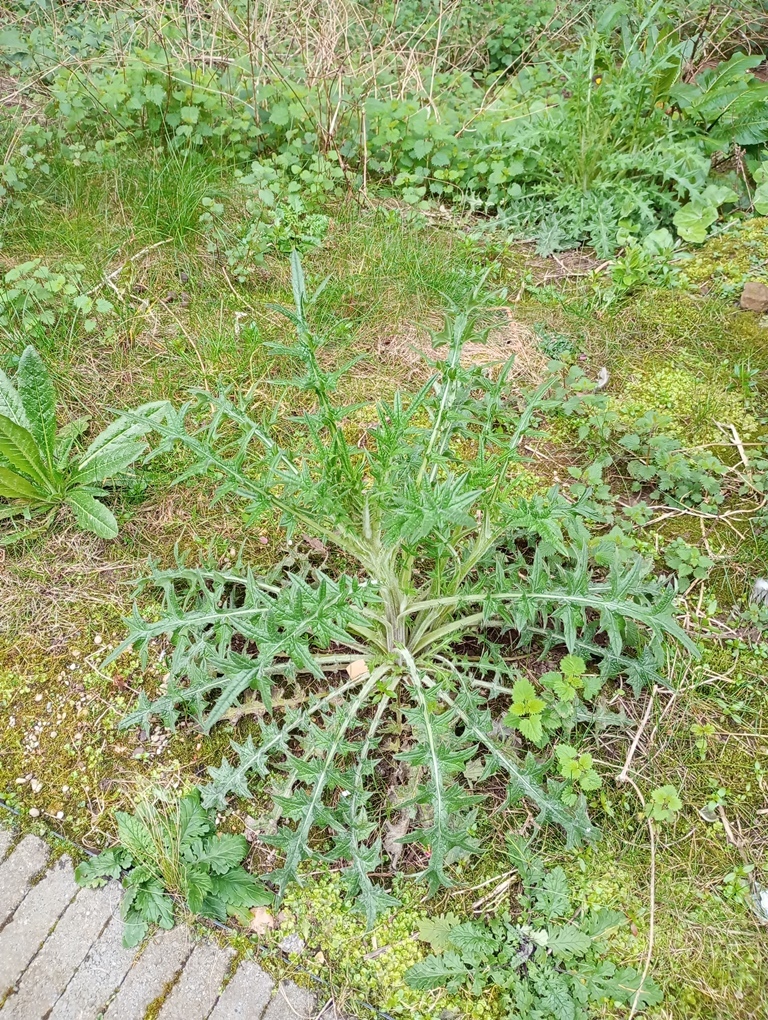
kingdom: Plantae
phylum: Tracheophyta
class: Magnoliopsida
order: Asterales
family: Asteraceae
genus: Cirsium
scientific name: Cirsium vulgare
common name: Bull thistle
